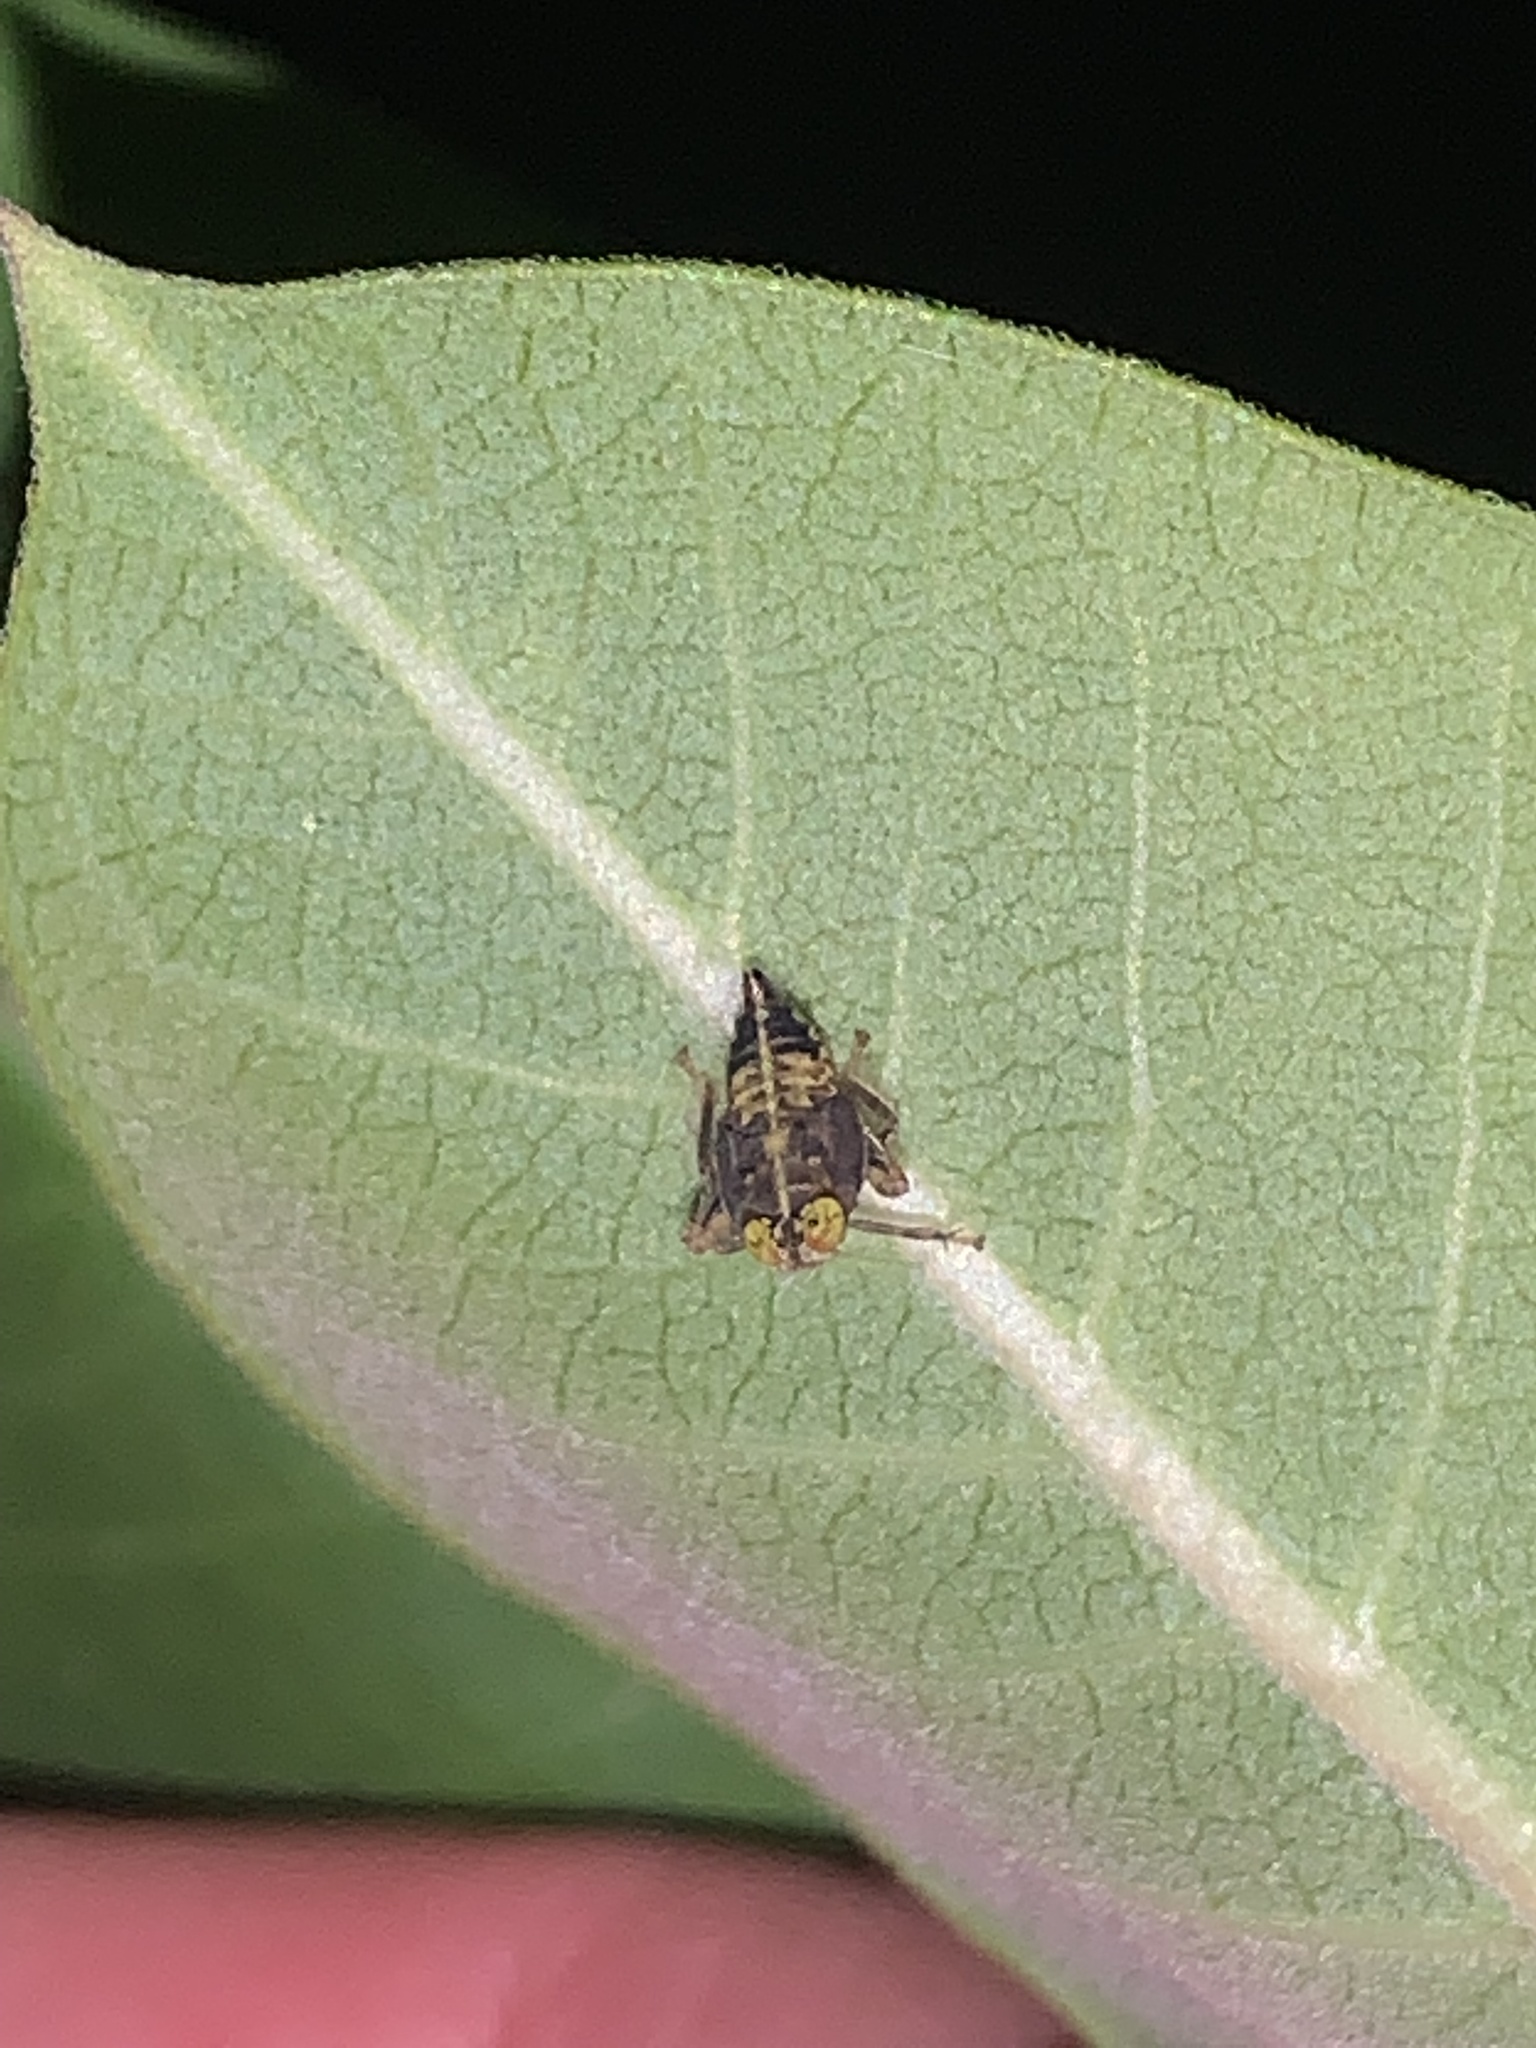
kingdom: Animalia
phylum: Arthropoda
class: Insecta
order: Hemiptera
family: Cicadellidae
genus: Jikradia
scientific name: Jikradia olitoria
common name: Coppery leafhopper
